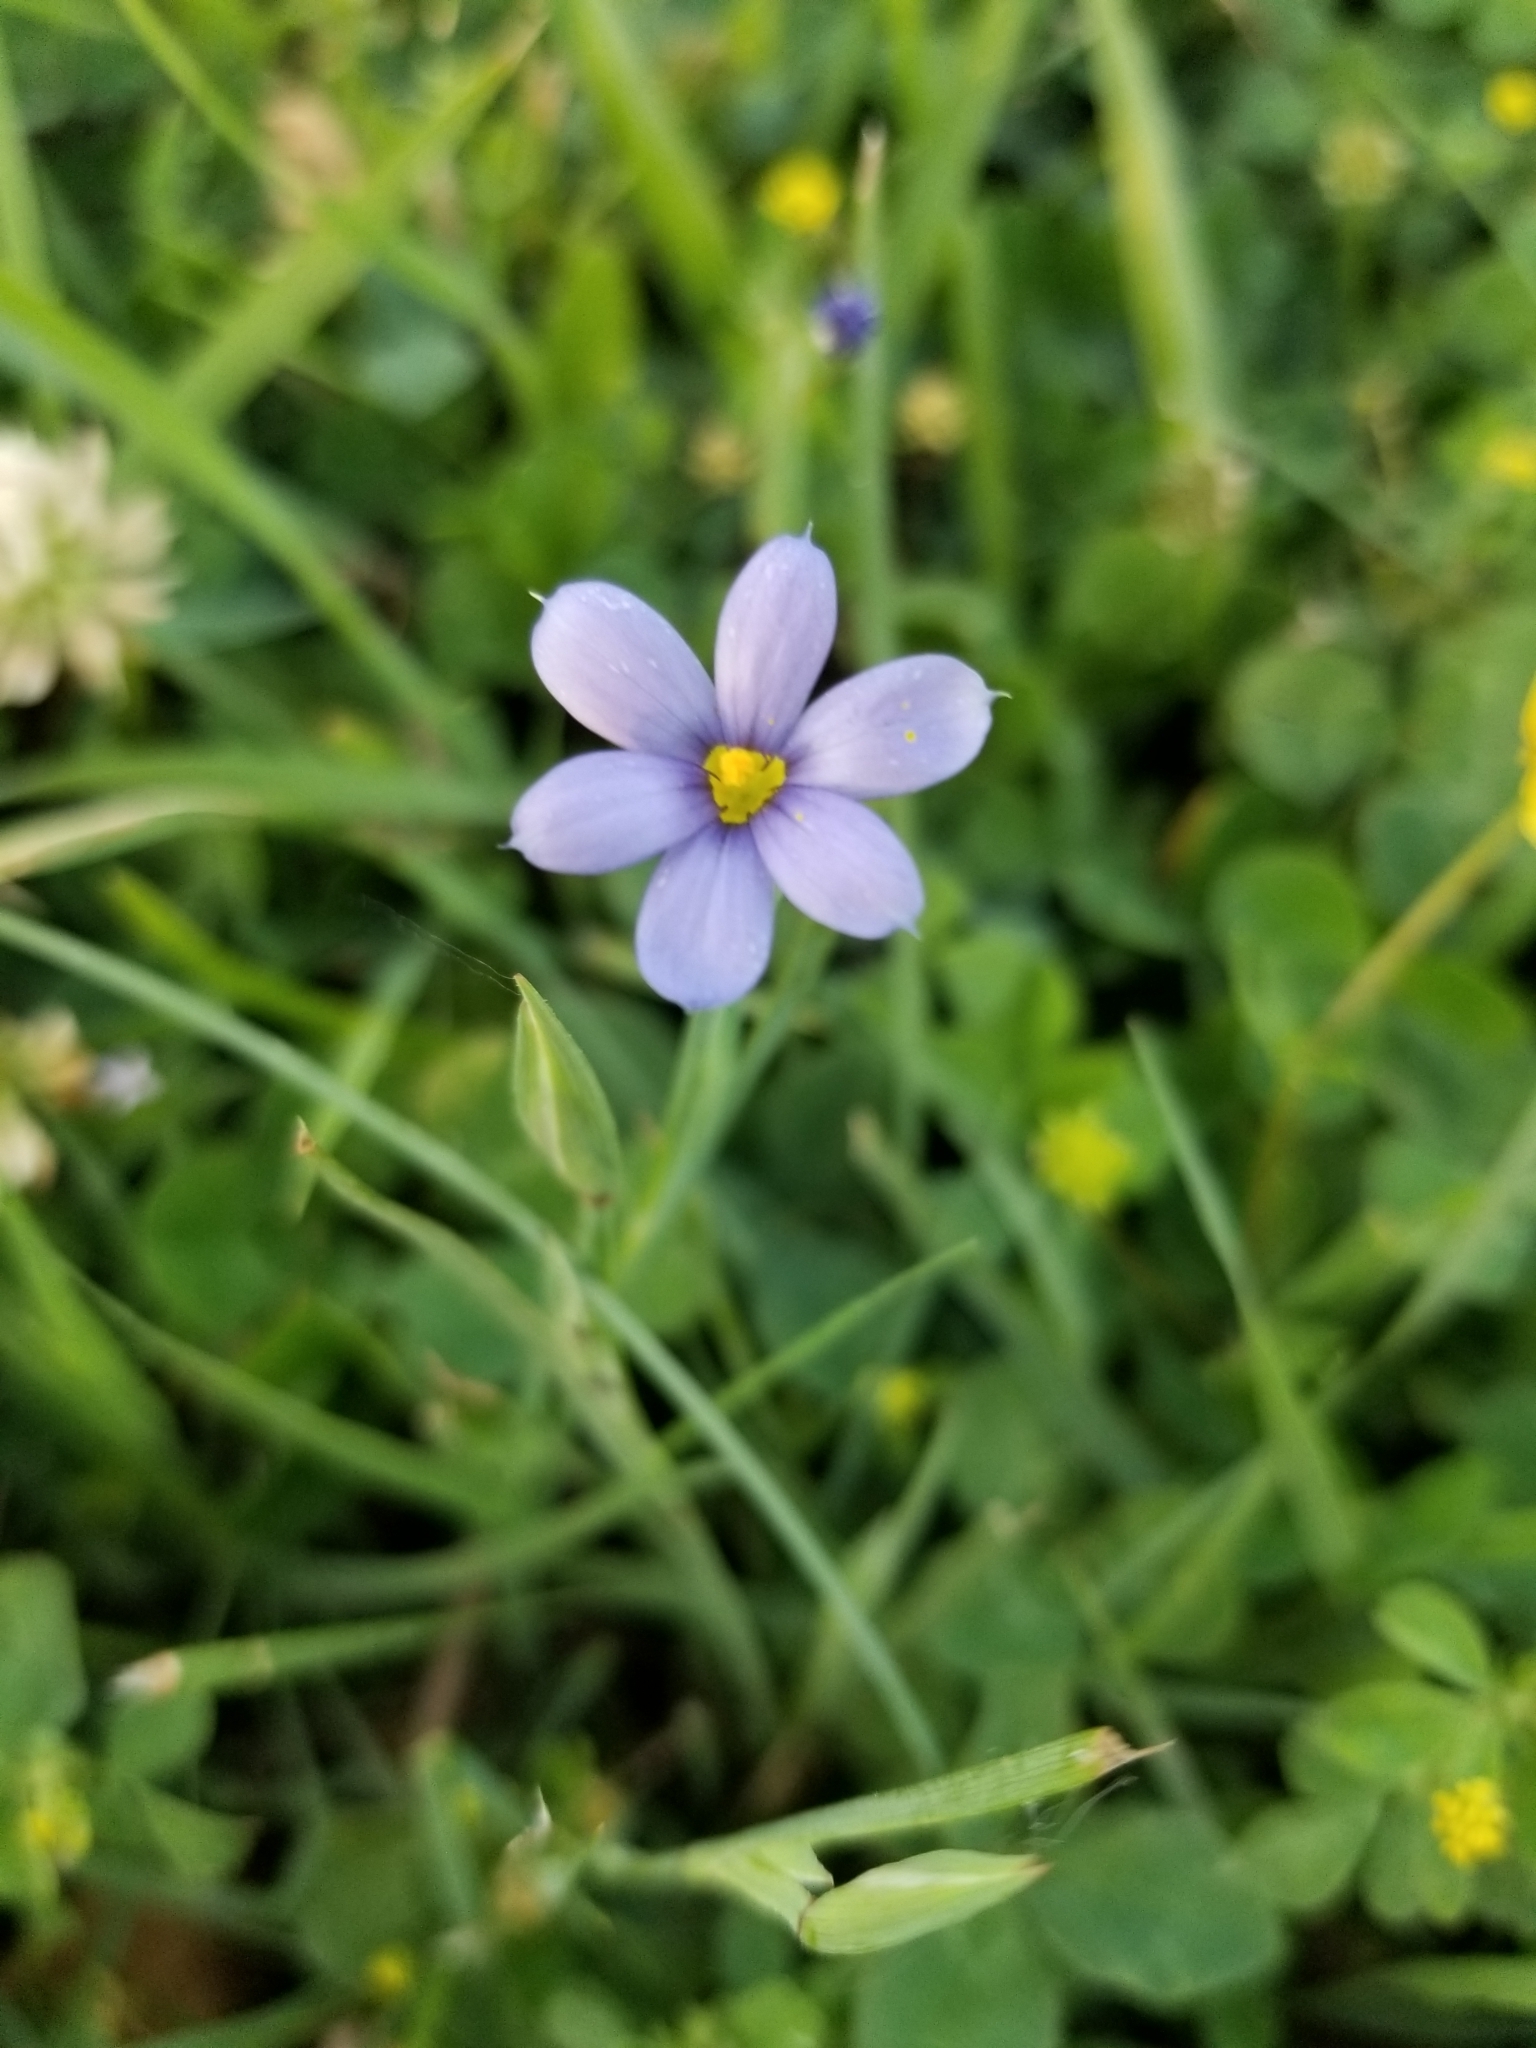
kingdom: Plantae
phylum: Tracheophyta
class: Liliopsida
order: Asparagales
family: Iridaceae
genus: Sisyrinchium
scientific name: Sisyrinchium atlanticum
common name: Eastern blue-eyed-grass
